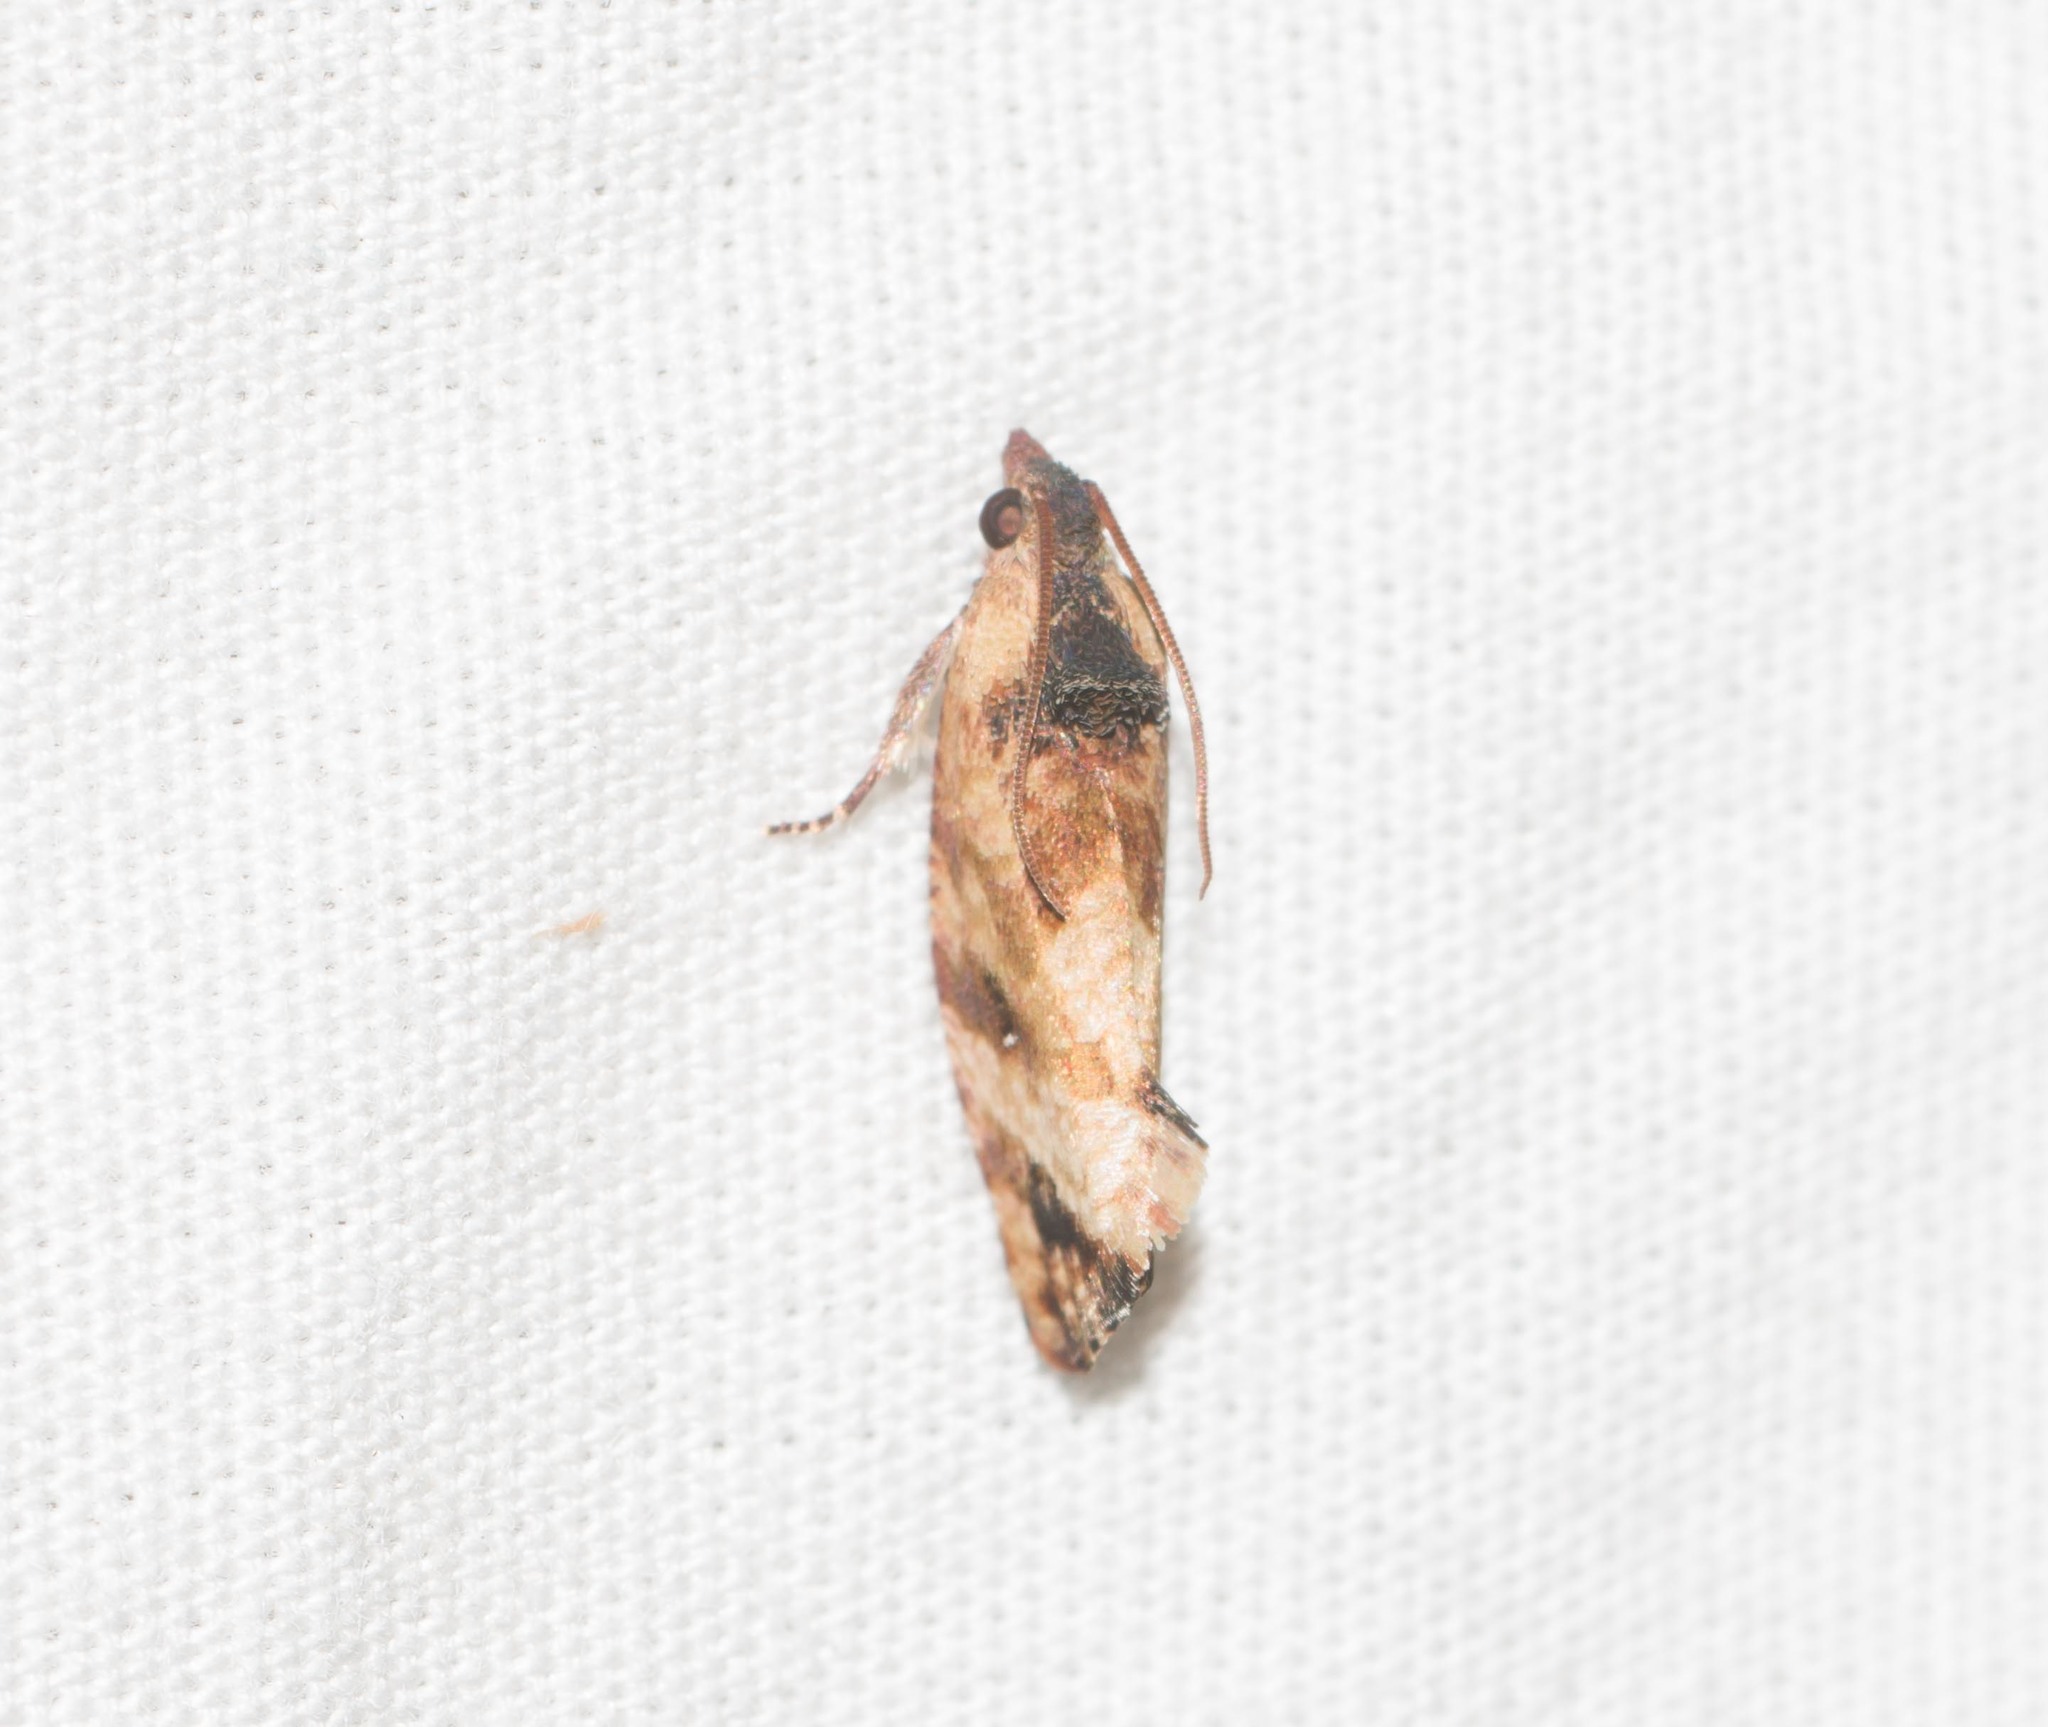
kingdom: Animalia
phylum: Arthropoda
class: Insecta
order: Lepidoptera
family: Tortricidae
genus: Cryptophlebia
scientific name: Cryptophlebia illepida
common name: Moth
